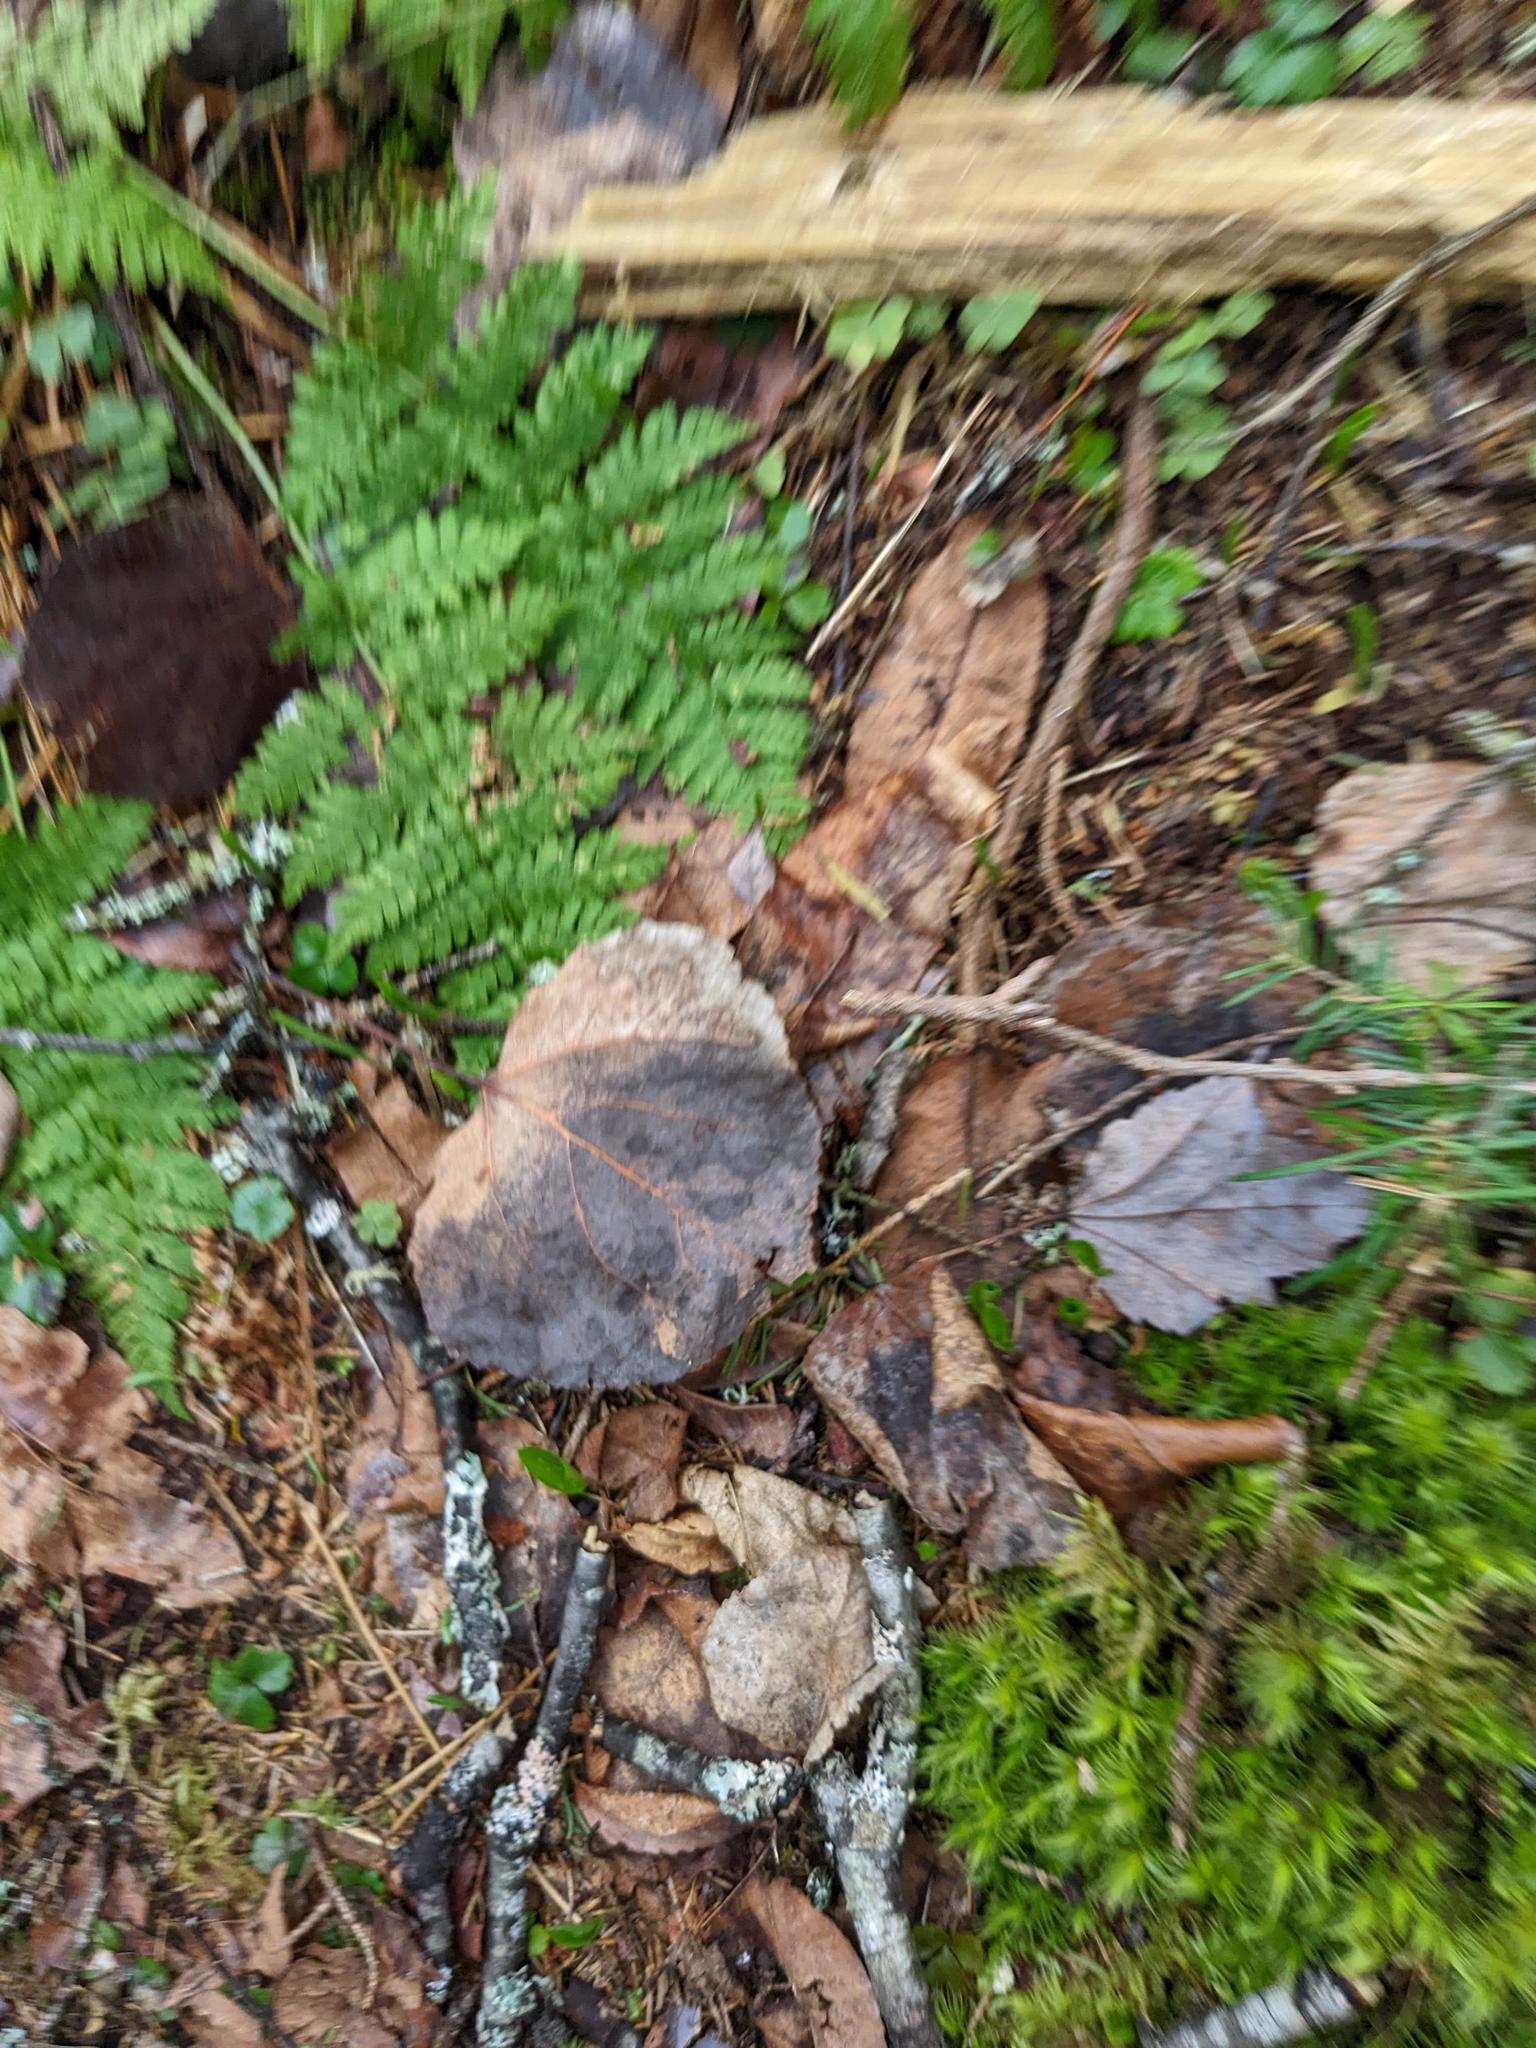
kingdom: Plantae
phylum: Tracheophyta
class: Magnoliopsida
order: Malpighiales
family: Salicaceae
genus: Populus
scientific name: Populus tremuloides
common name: Quaking aspen
